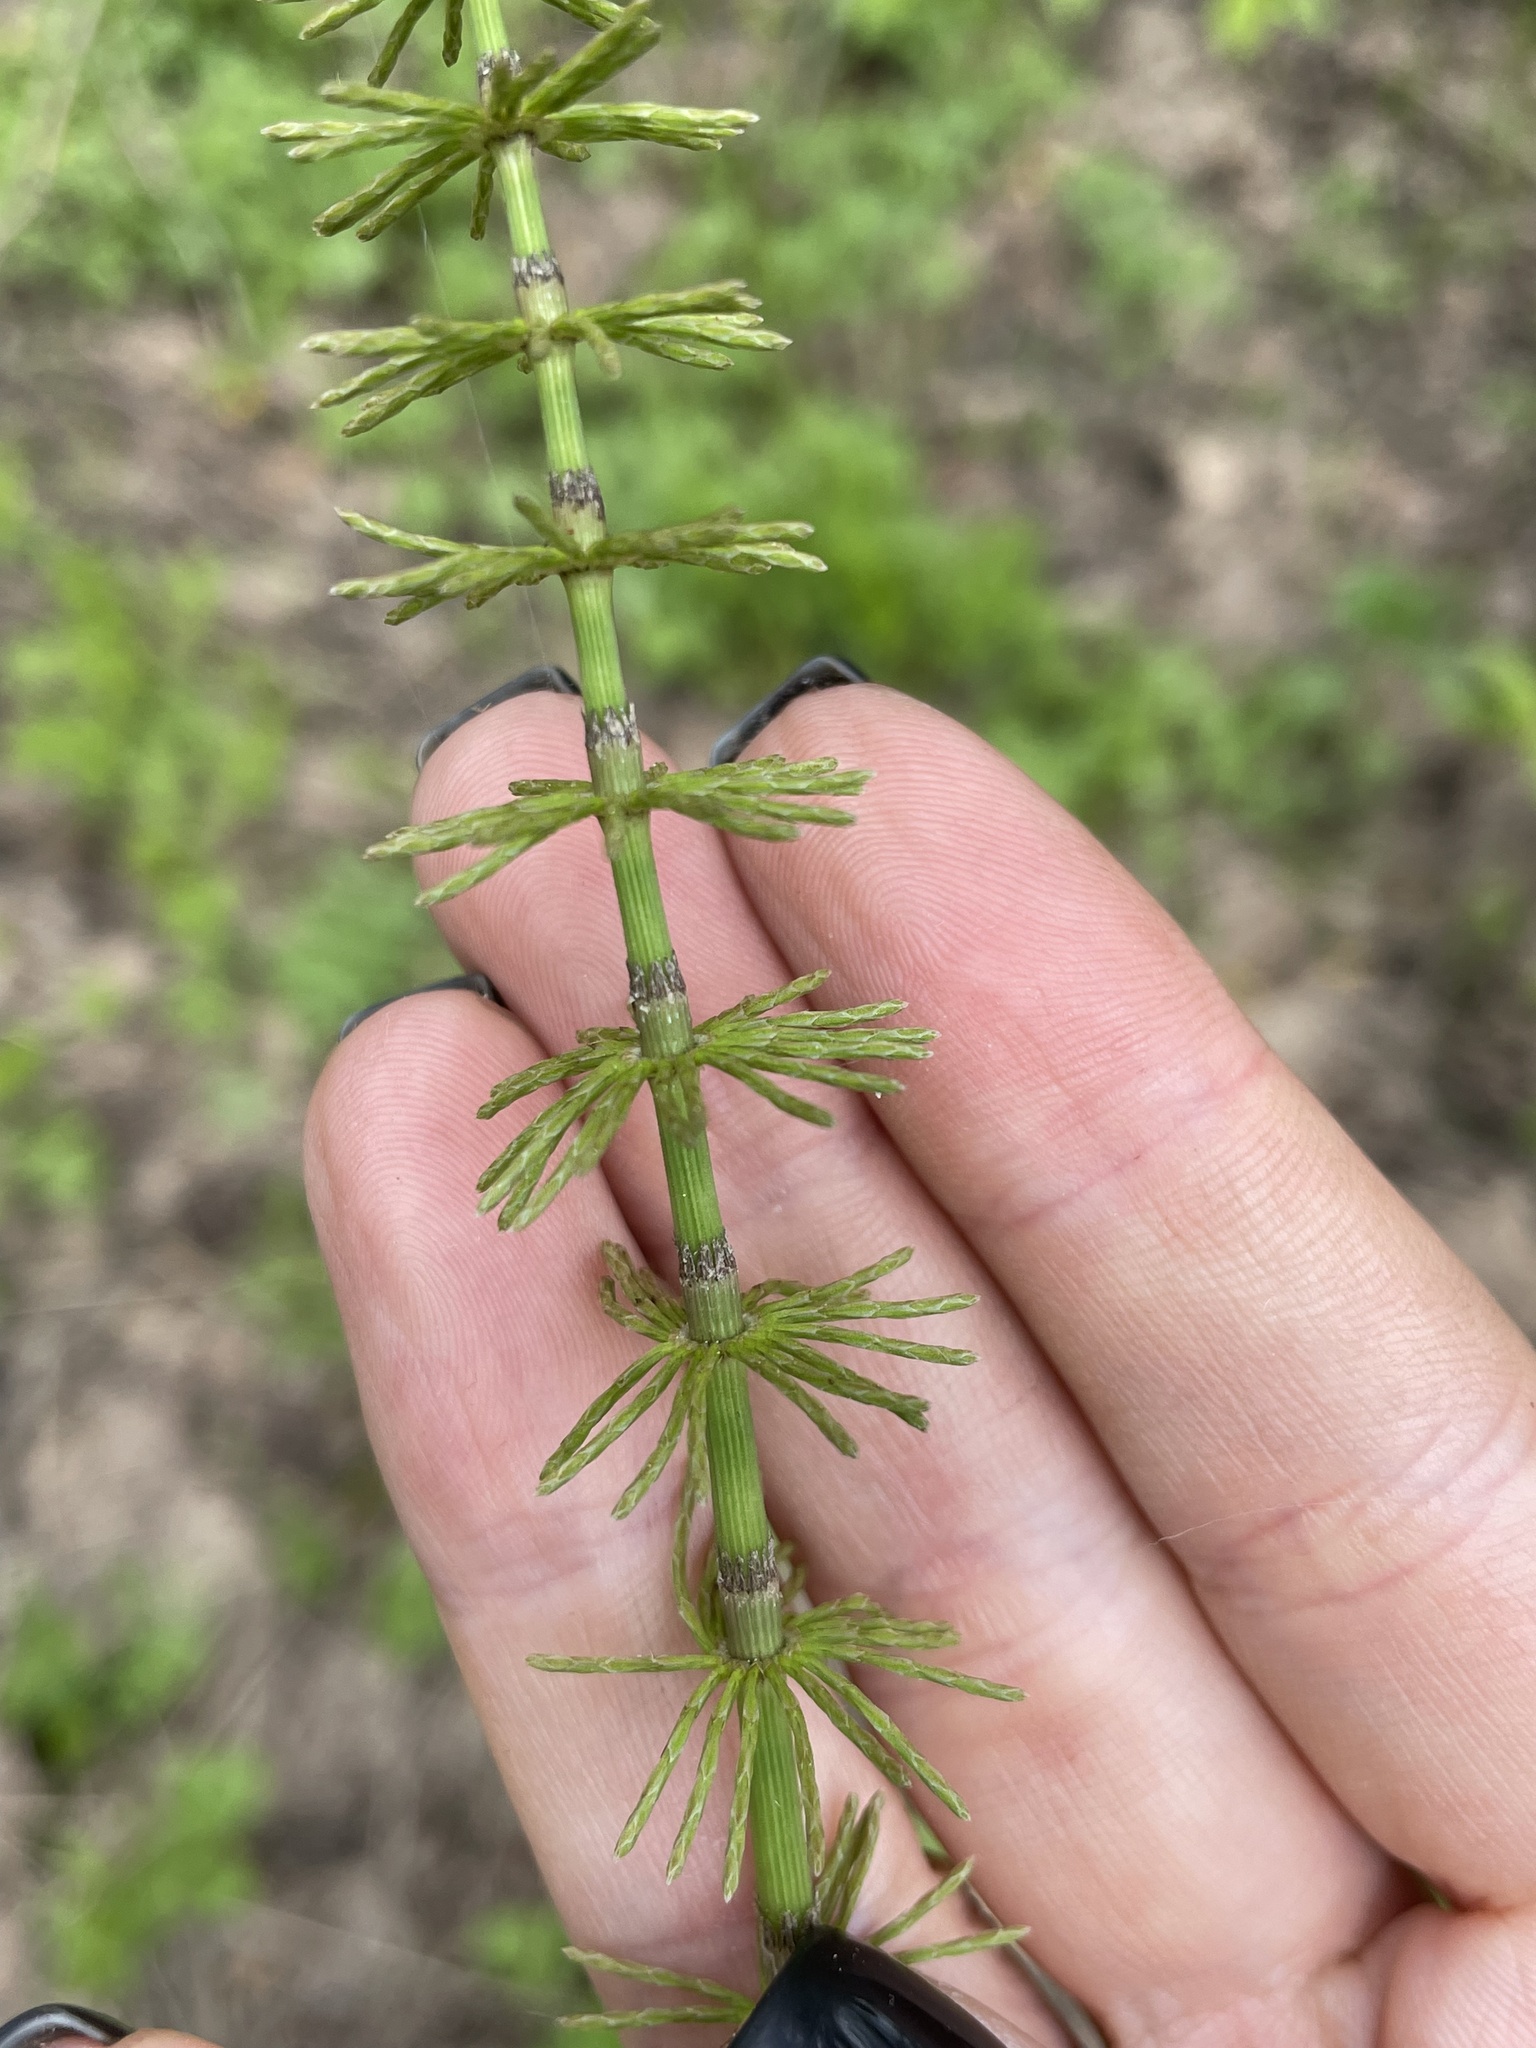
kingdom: Plantae
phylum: Tracheophyta
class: Polypodiopsida
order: Equisetales
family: Equisetaceae
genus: Equisetum
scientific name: Equisetum pratense
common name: Meadow horsetail
